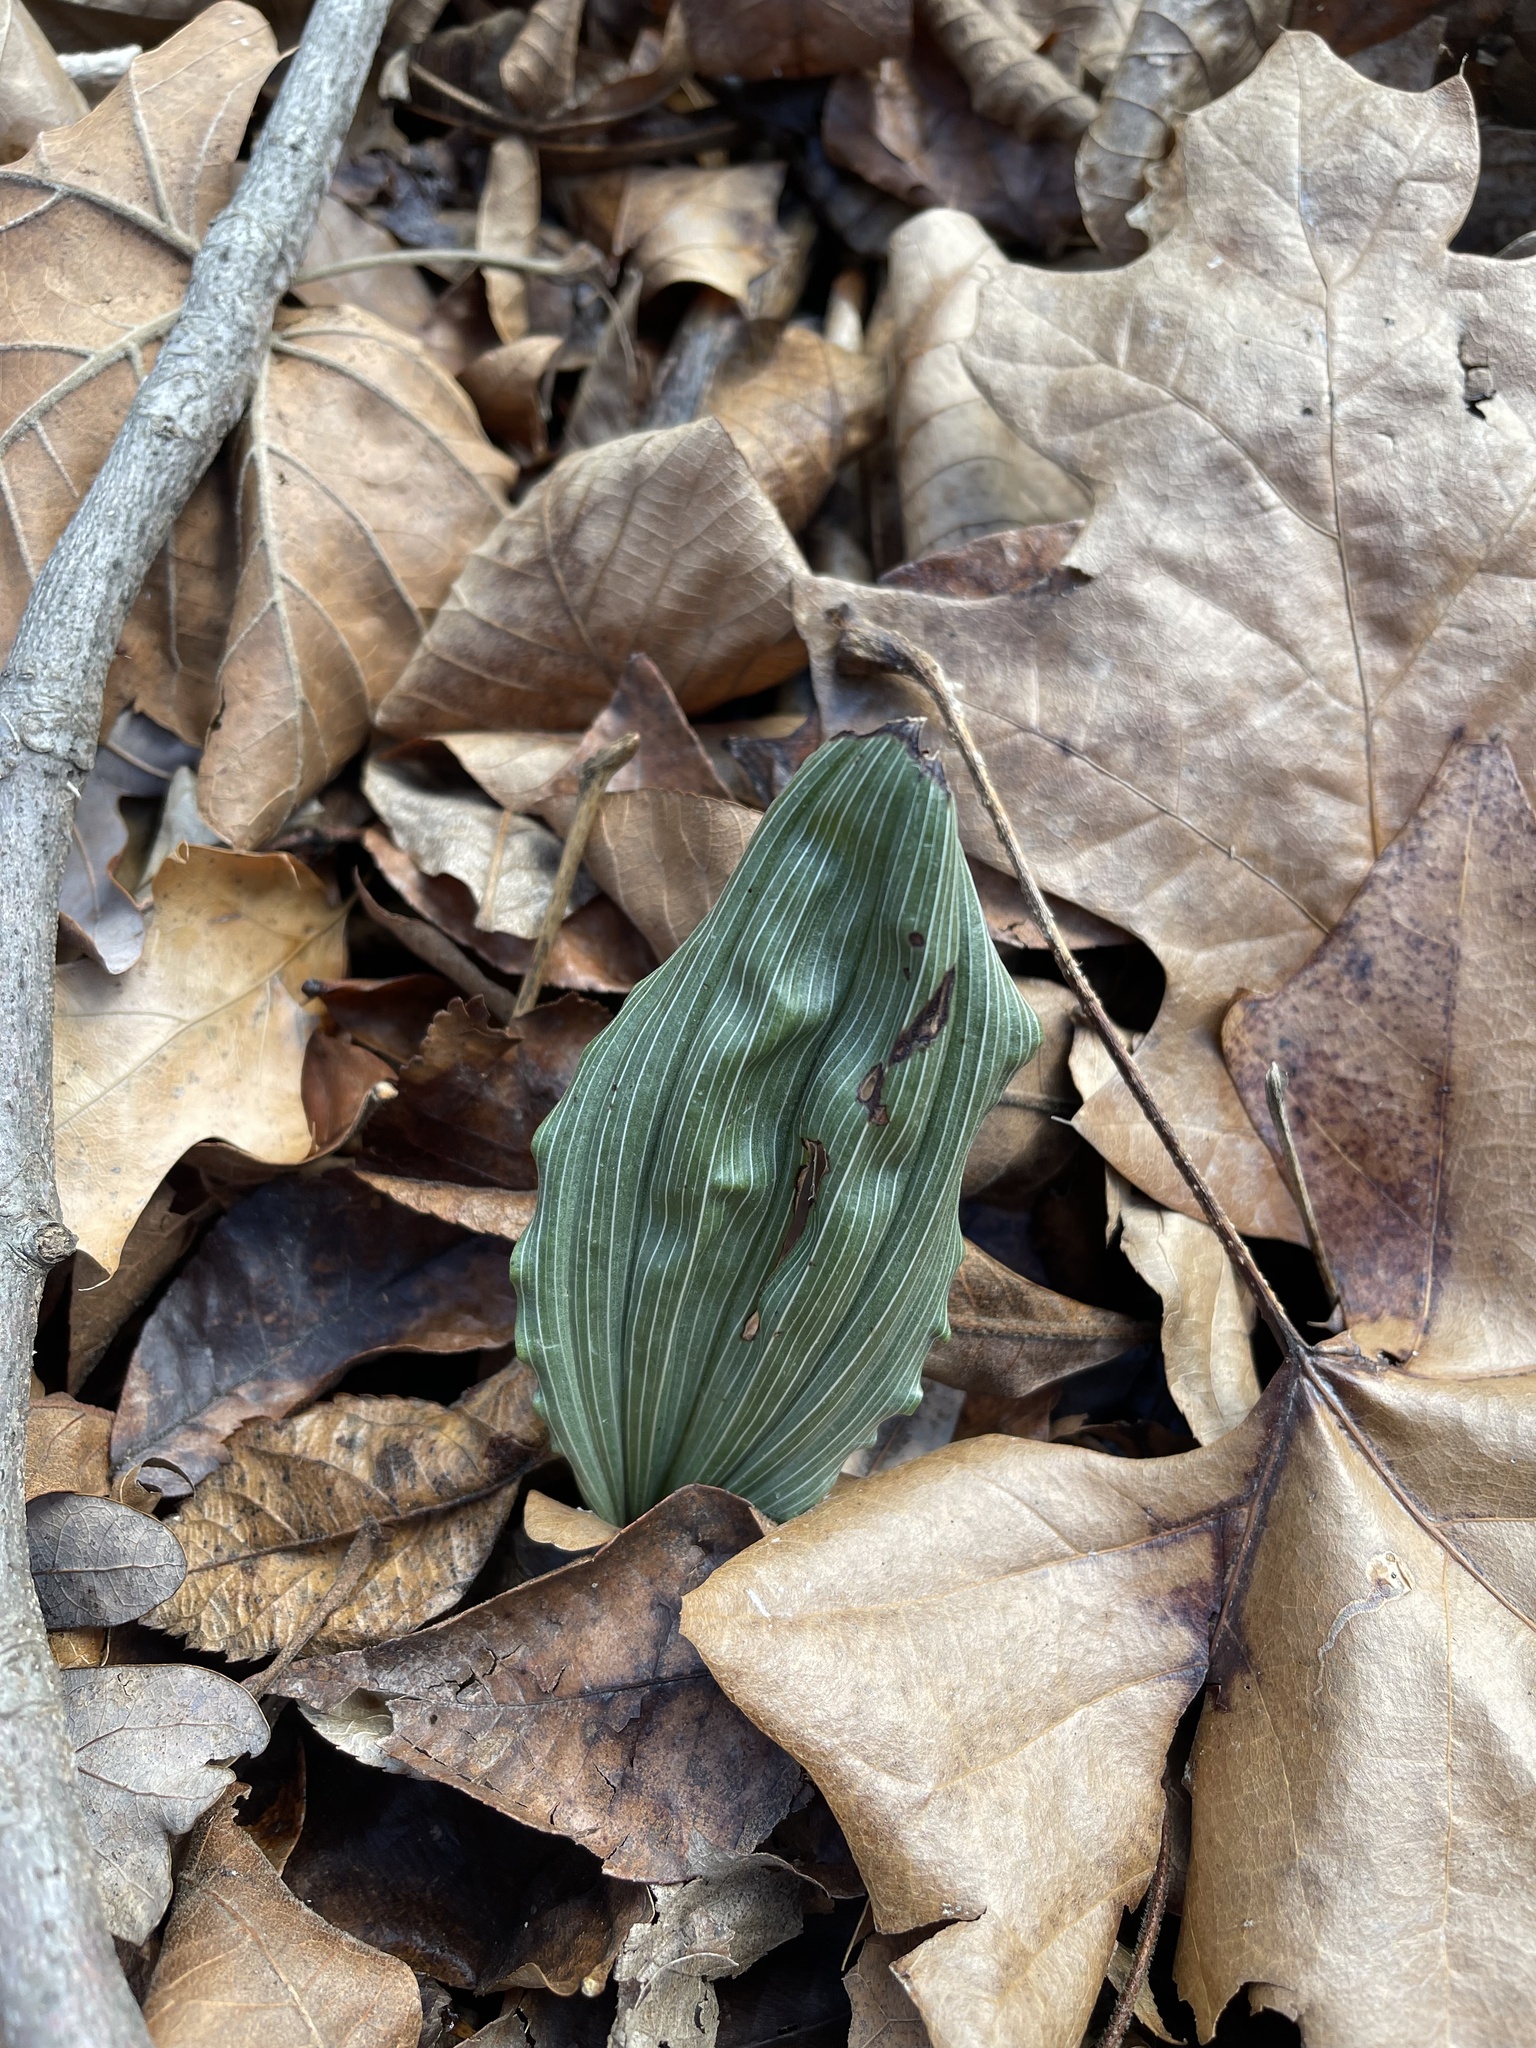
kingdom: Plantae
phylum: Tracheophyta
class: Liliopsida
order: Asparagales
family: Orchidaceae
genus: Aplectrum
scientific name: Aplectrum hyemale
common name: Adam-and-eve
